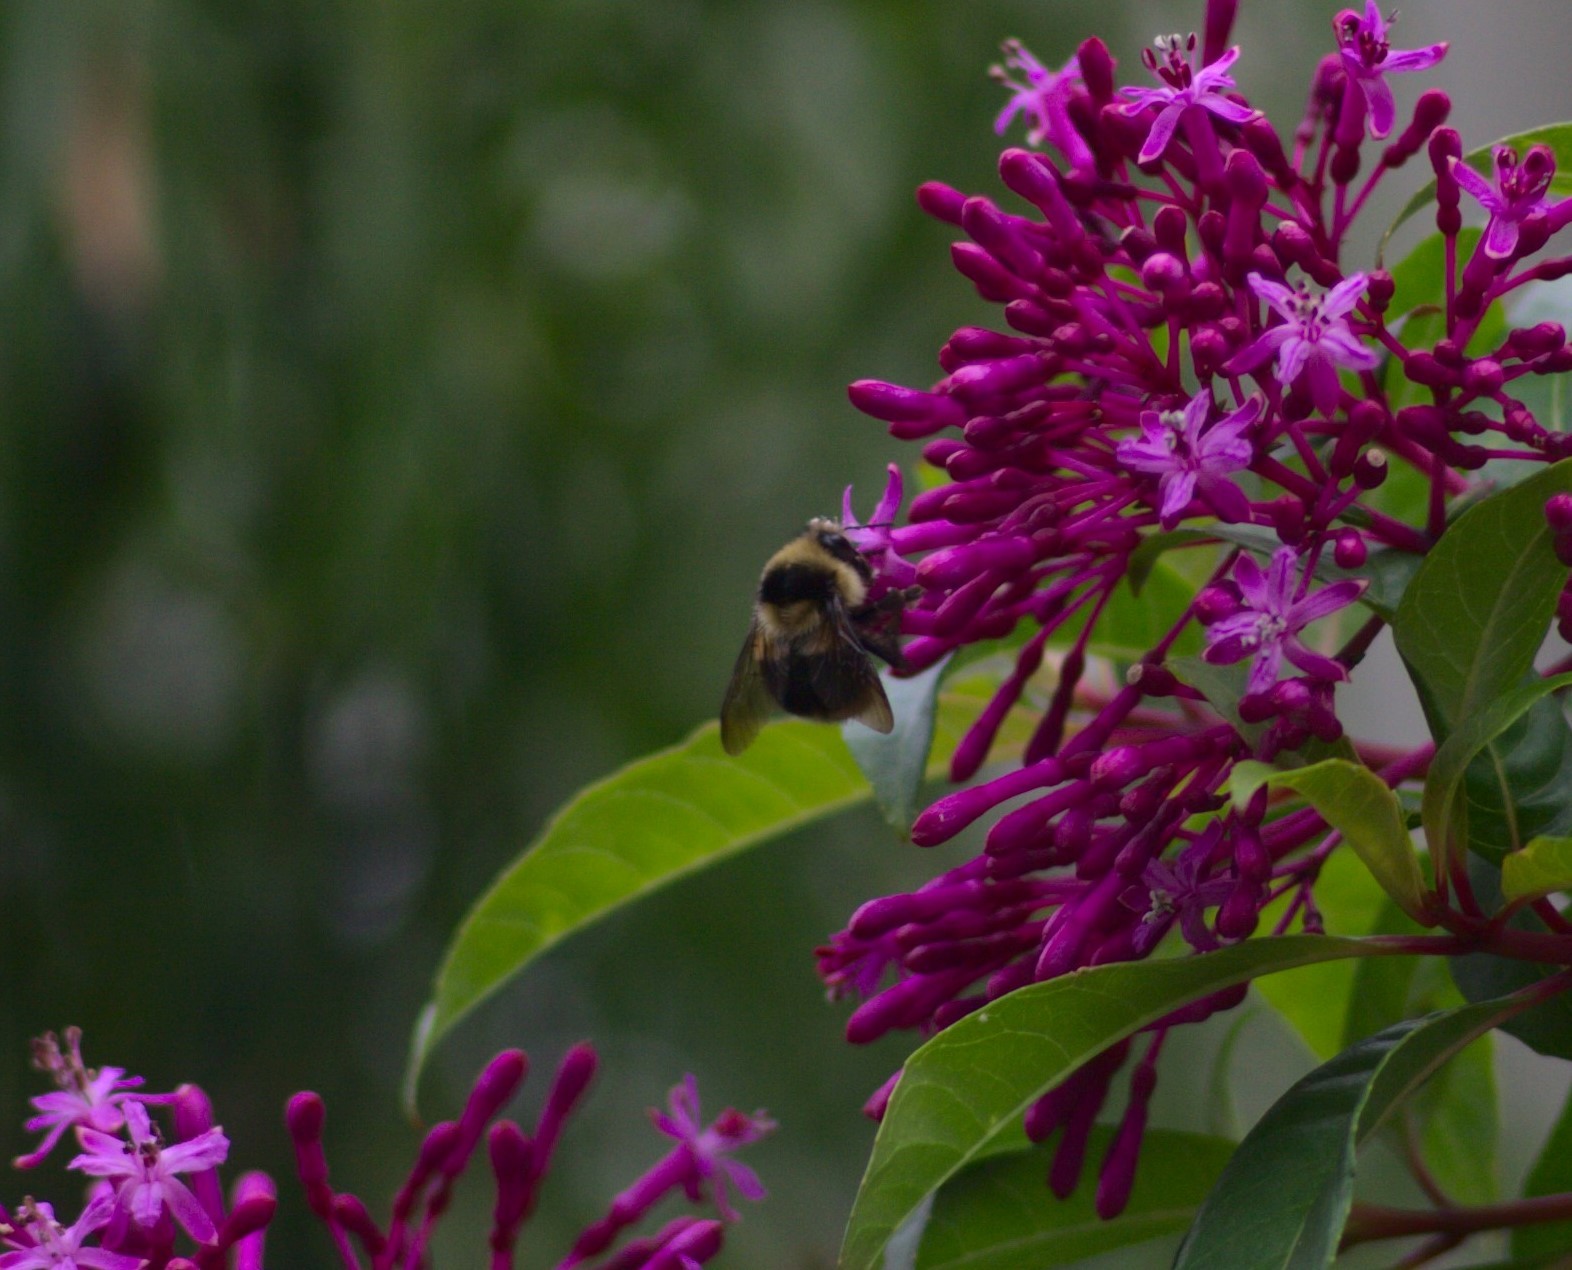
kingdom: Animalia
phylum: Arthropoda
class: Insecta
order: Hymenoptera
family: Apidae
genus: Bombus
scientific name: Bombus melanopygus
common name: Black tail bumble bee
